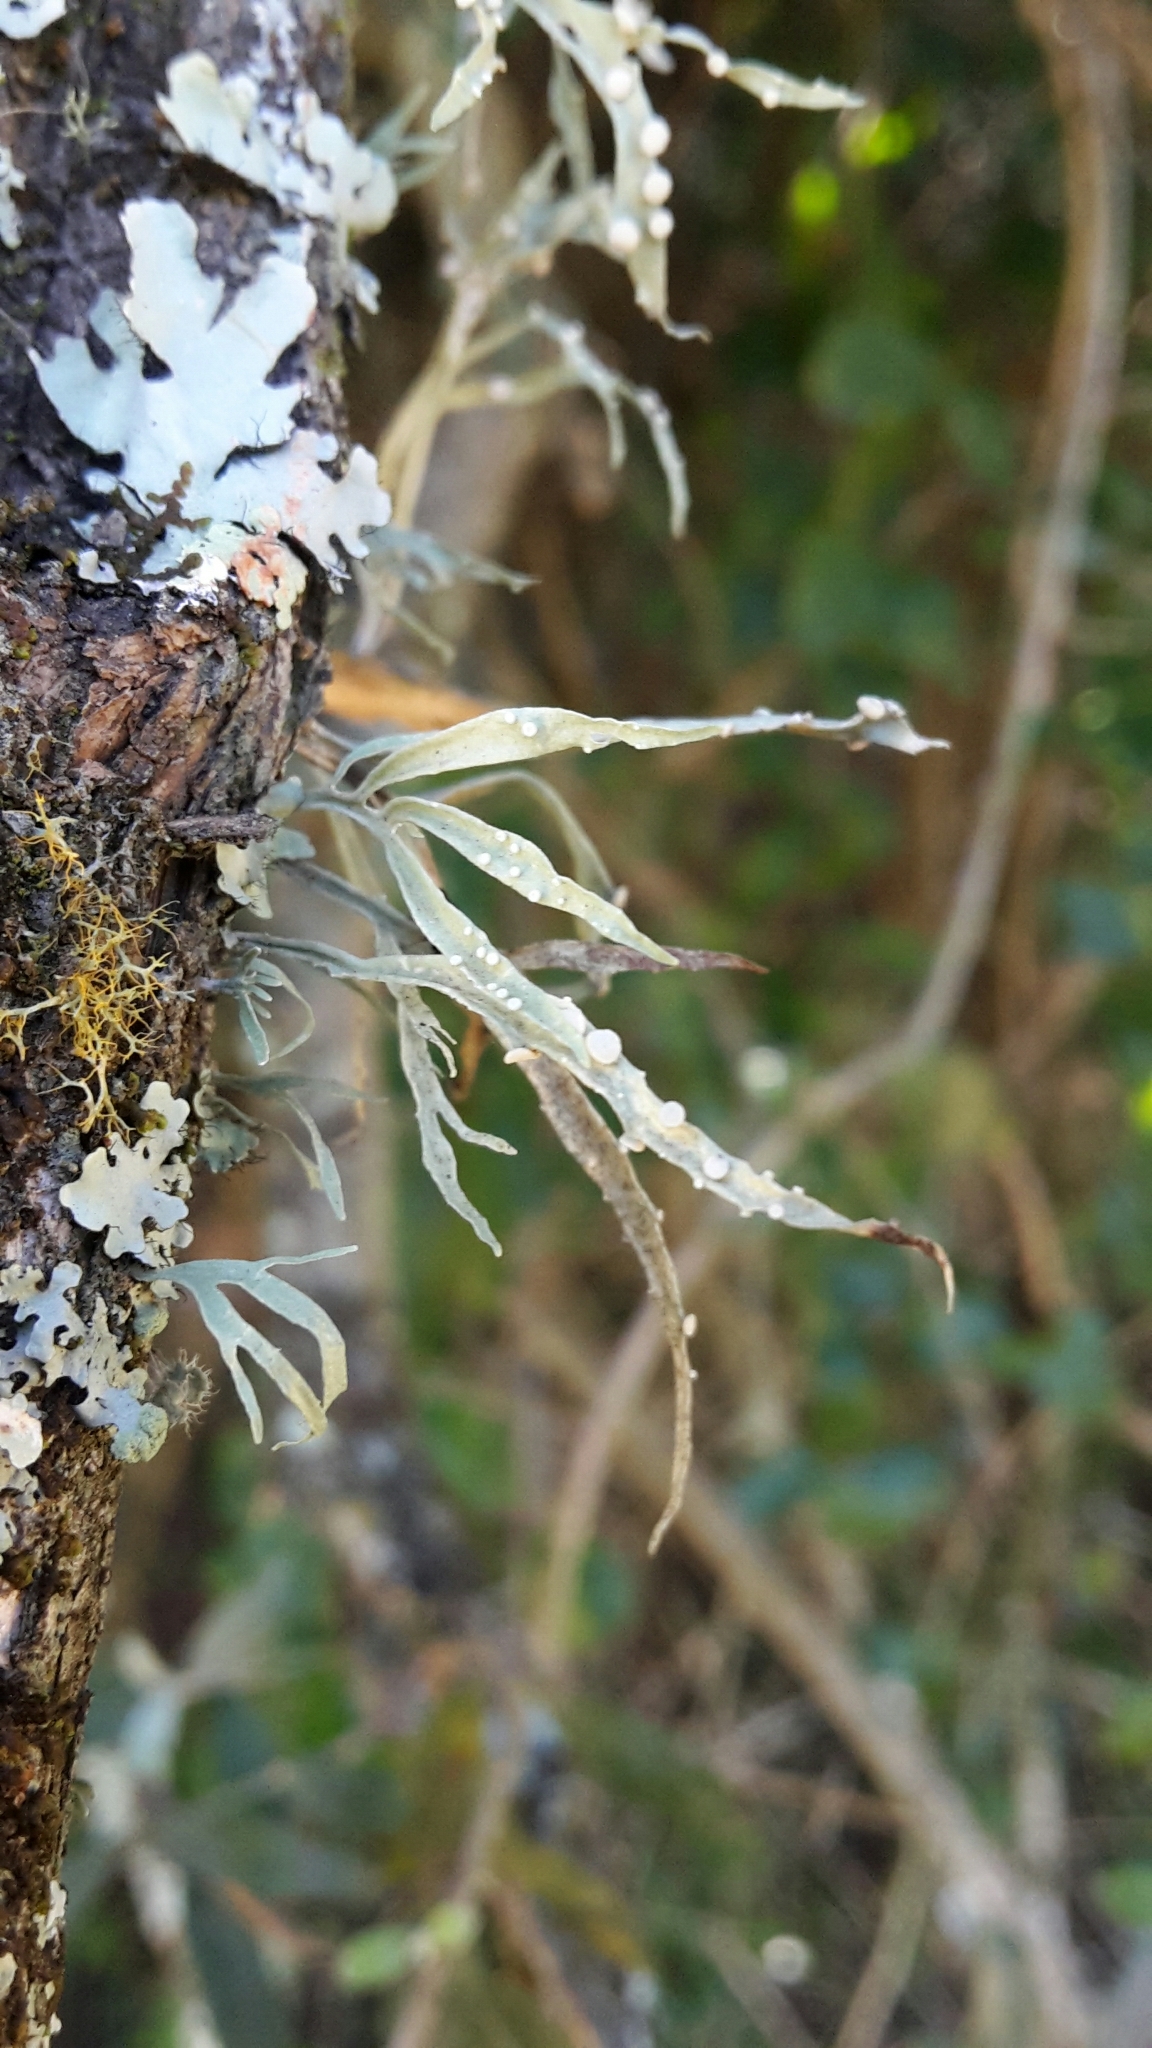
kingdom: Fungi
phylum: Ascomycota
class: Lecanoromycetes
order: Lecanorales
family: Ramalinaceae
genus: Ramalina
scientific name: Ramalina celastri
